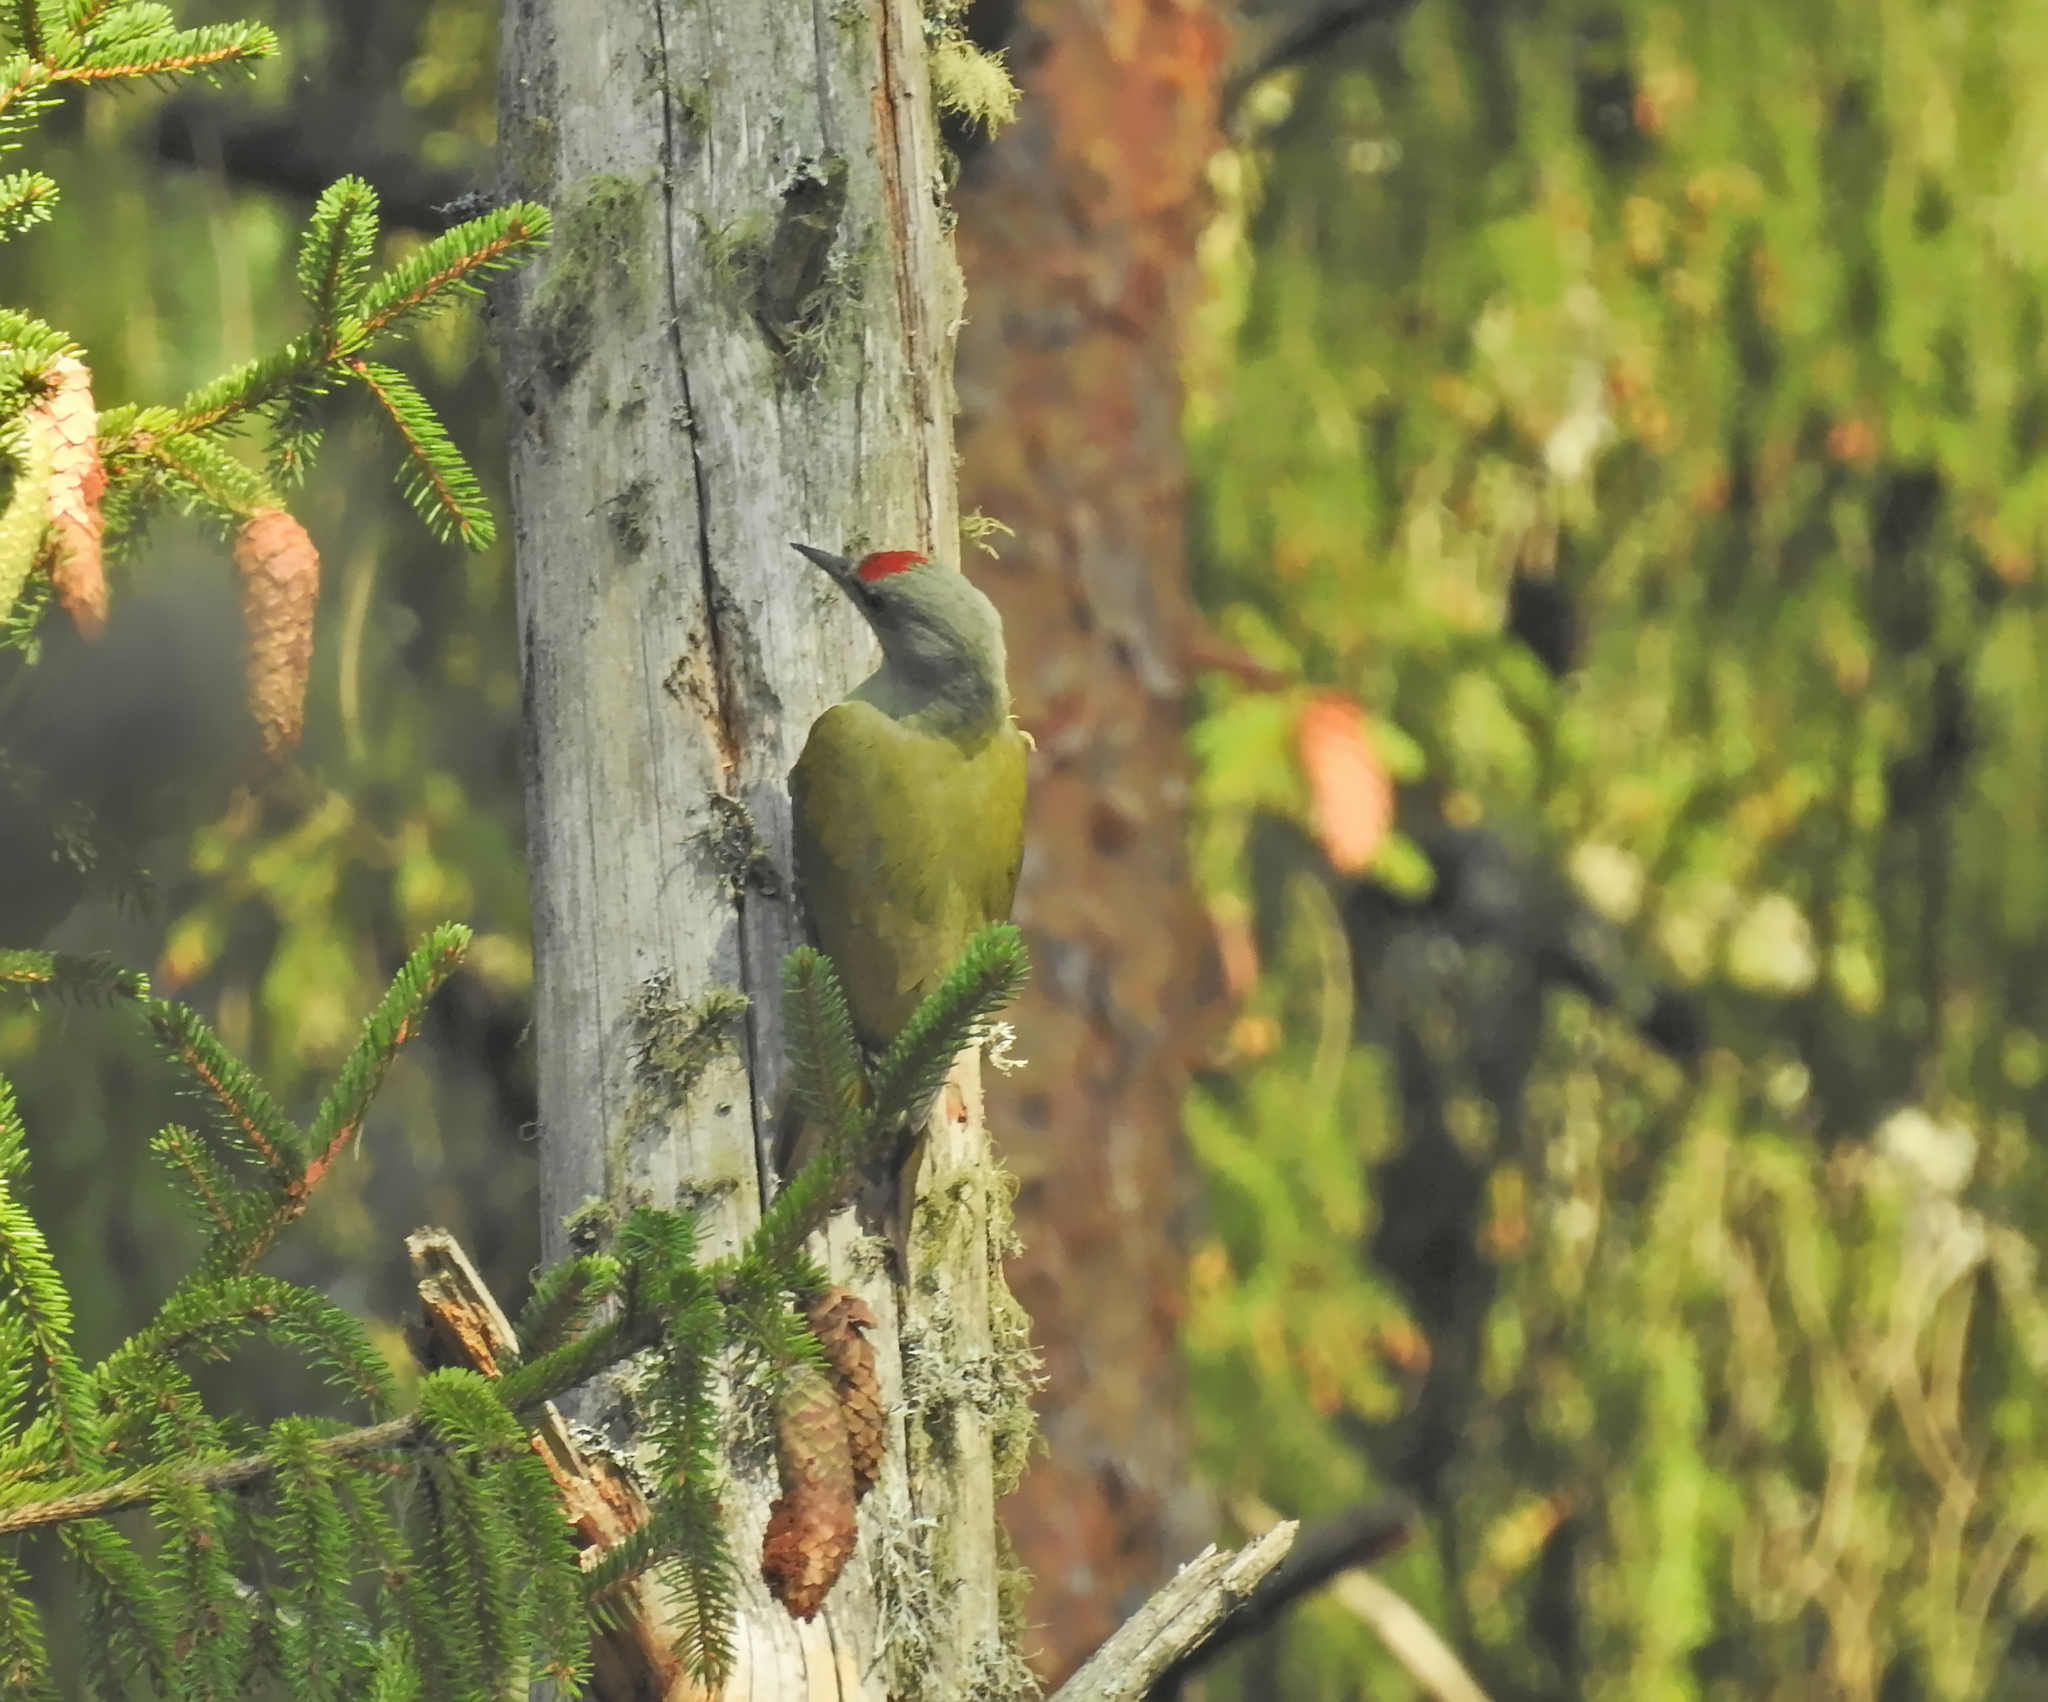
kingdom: Animalia
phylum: Chordata
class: Aves
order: Piciformes
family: Picidae
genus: Picus
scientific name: Picus canus
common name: Grey-headed woodpecker
